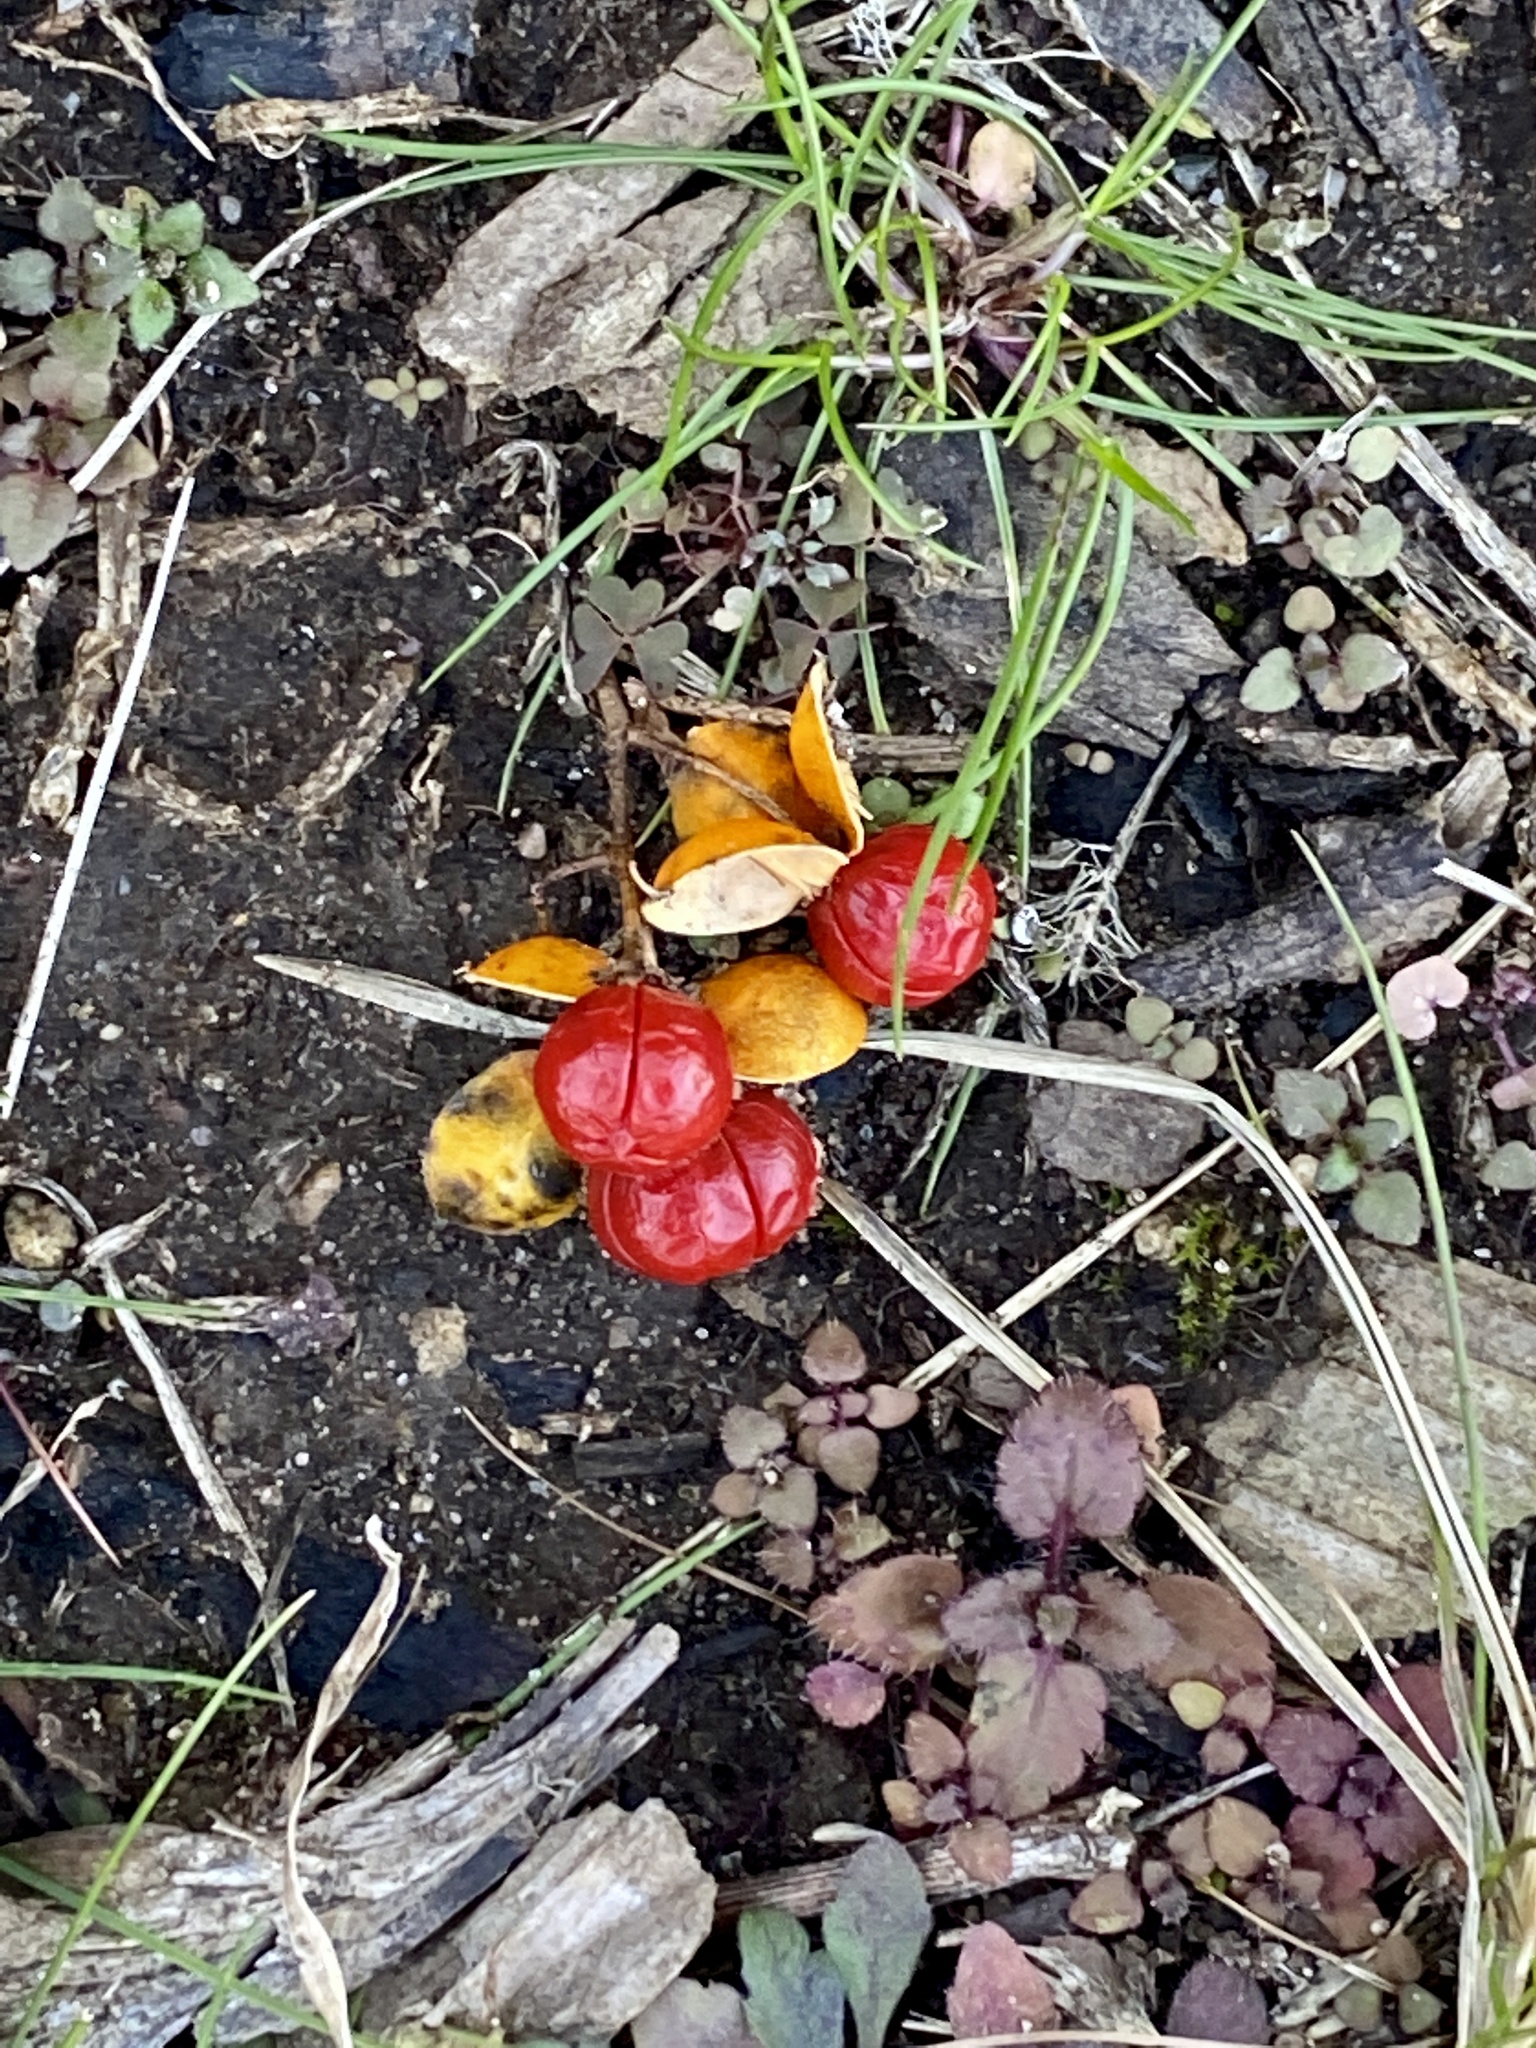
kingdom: Plantae
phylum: Tracheophyta
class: Magnoliopsida
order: Celastrales
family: Celastraceae
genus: Celastrus
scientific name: Celastrus orbiculatus
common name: Oriental bittersweet
